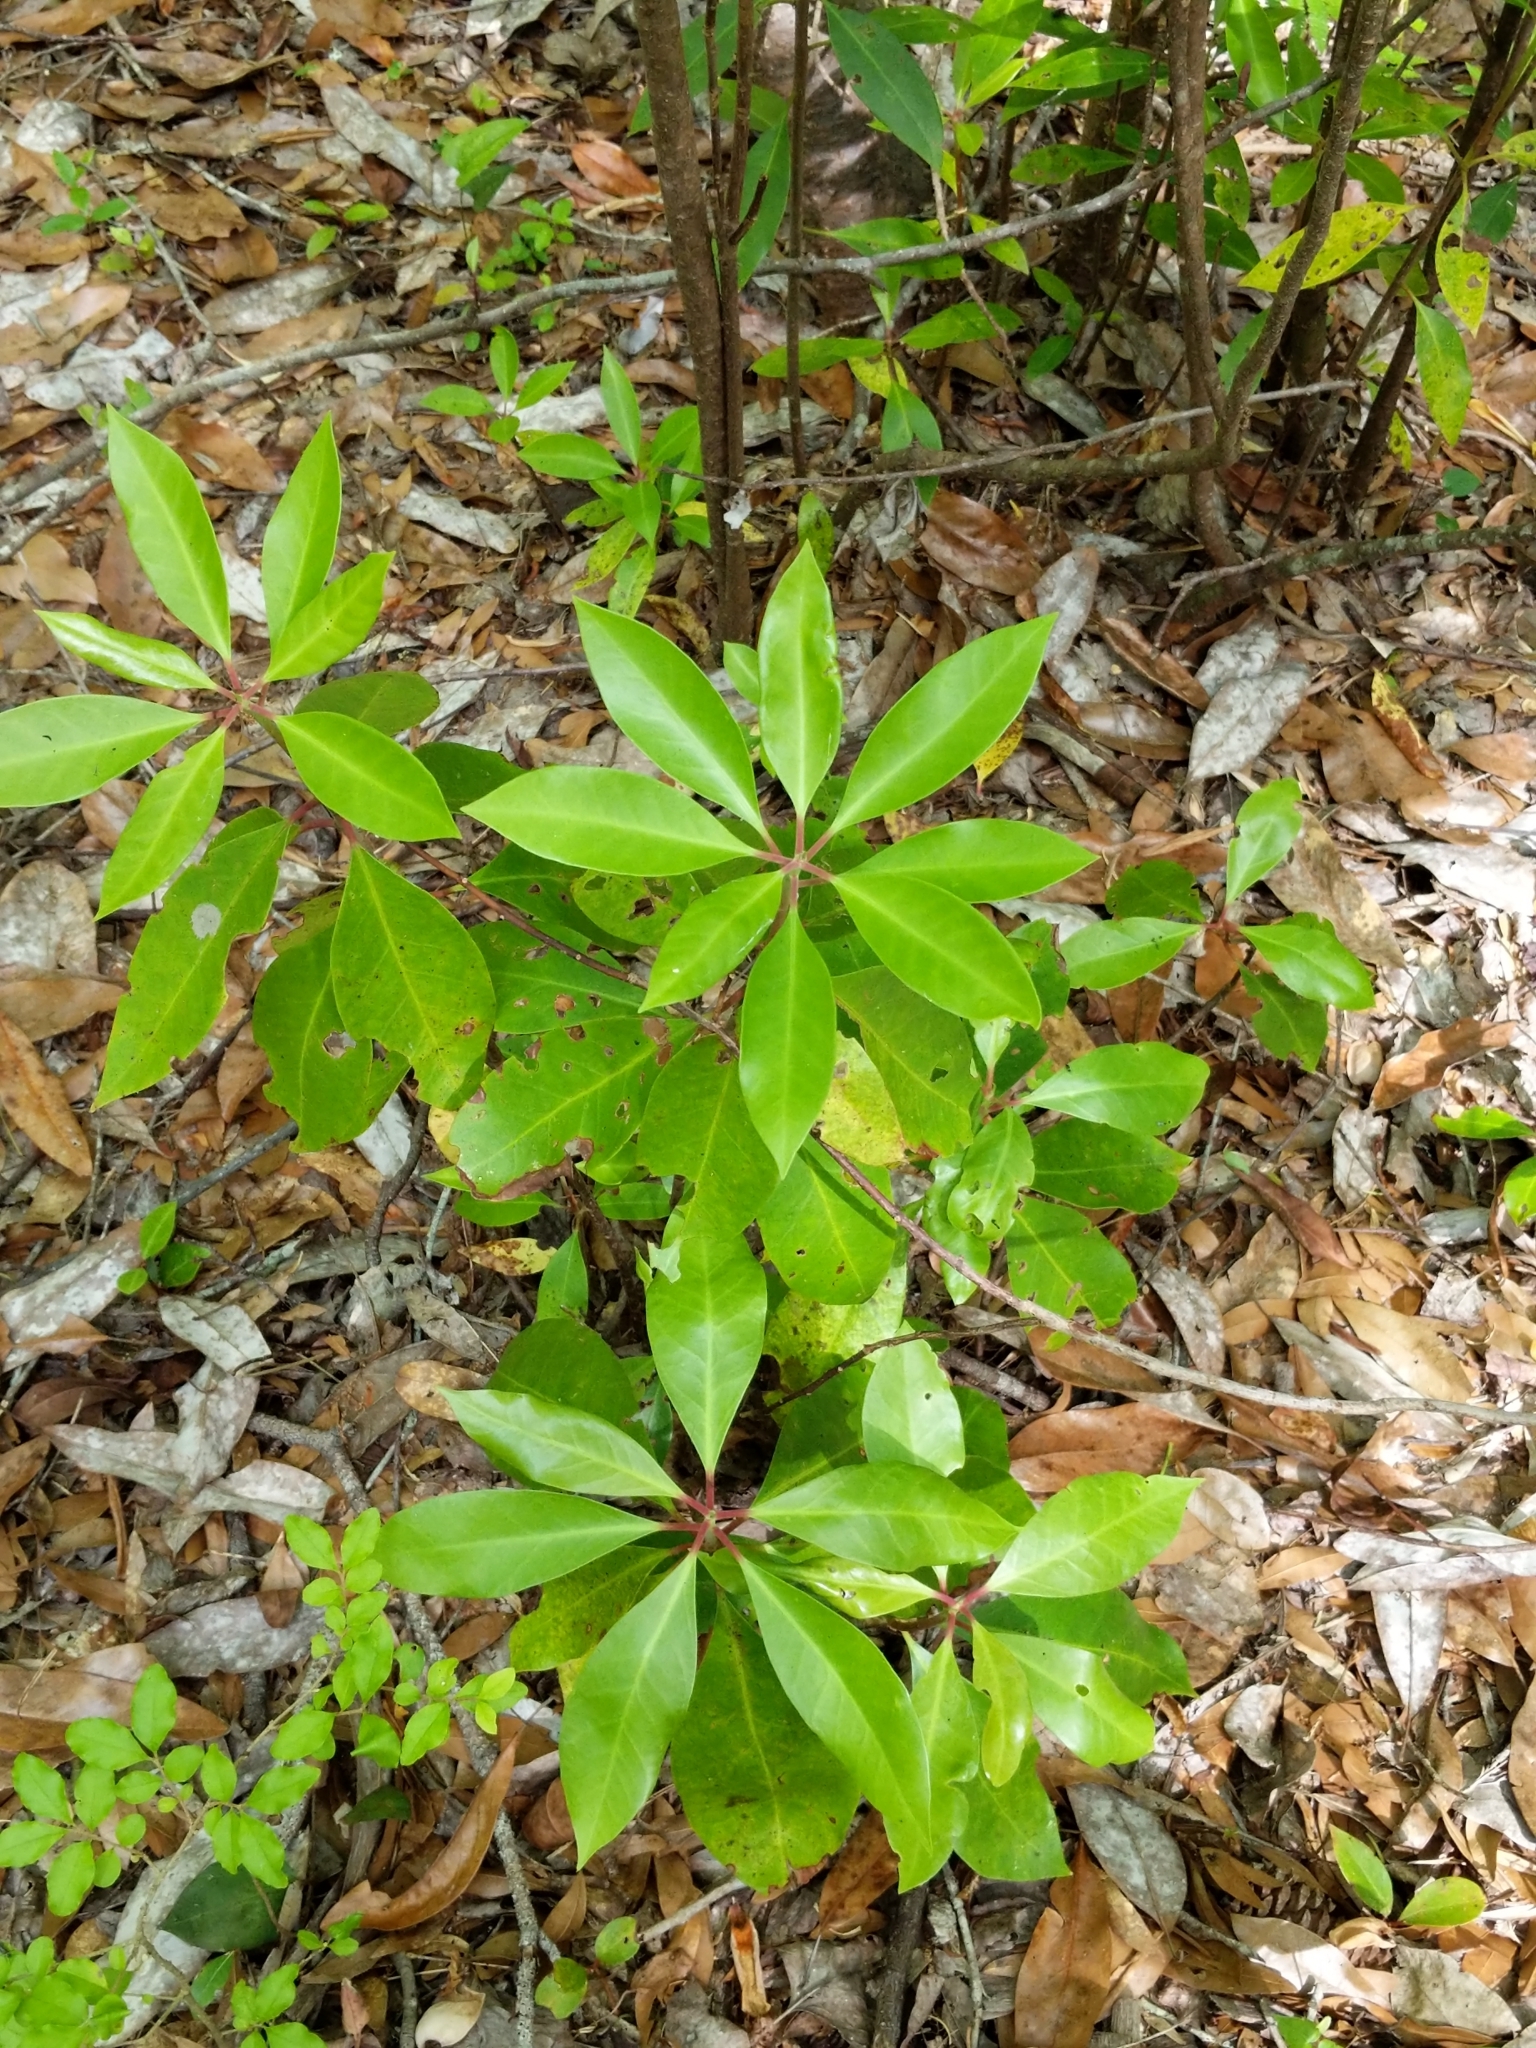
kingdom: Plantae
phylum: Tracheophyta
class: Magnoliopsida
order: Austrobaileyales
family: Schisandraceae
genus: Illicium
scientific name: Illicium floridanum
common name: Florida anisetree
